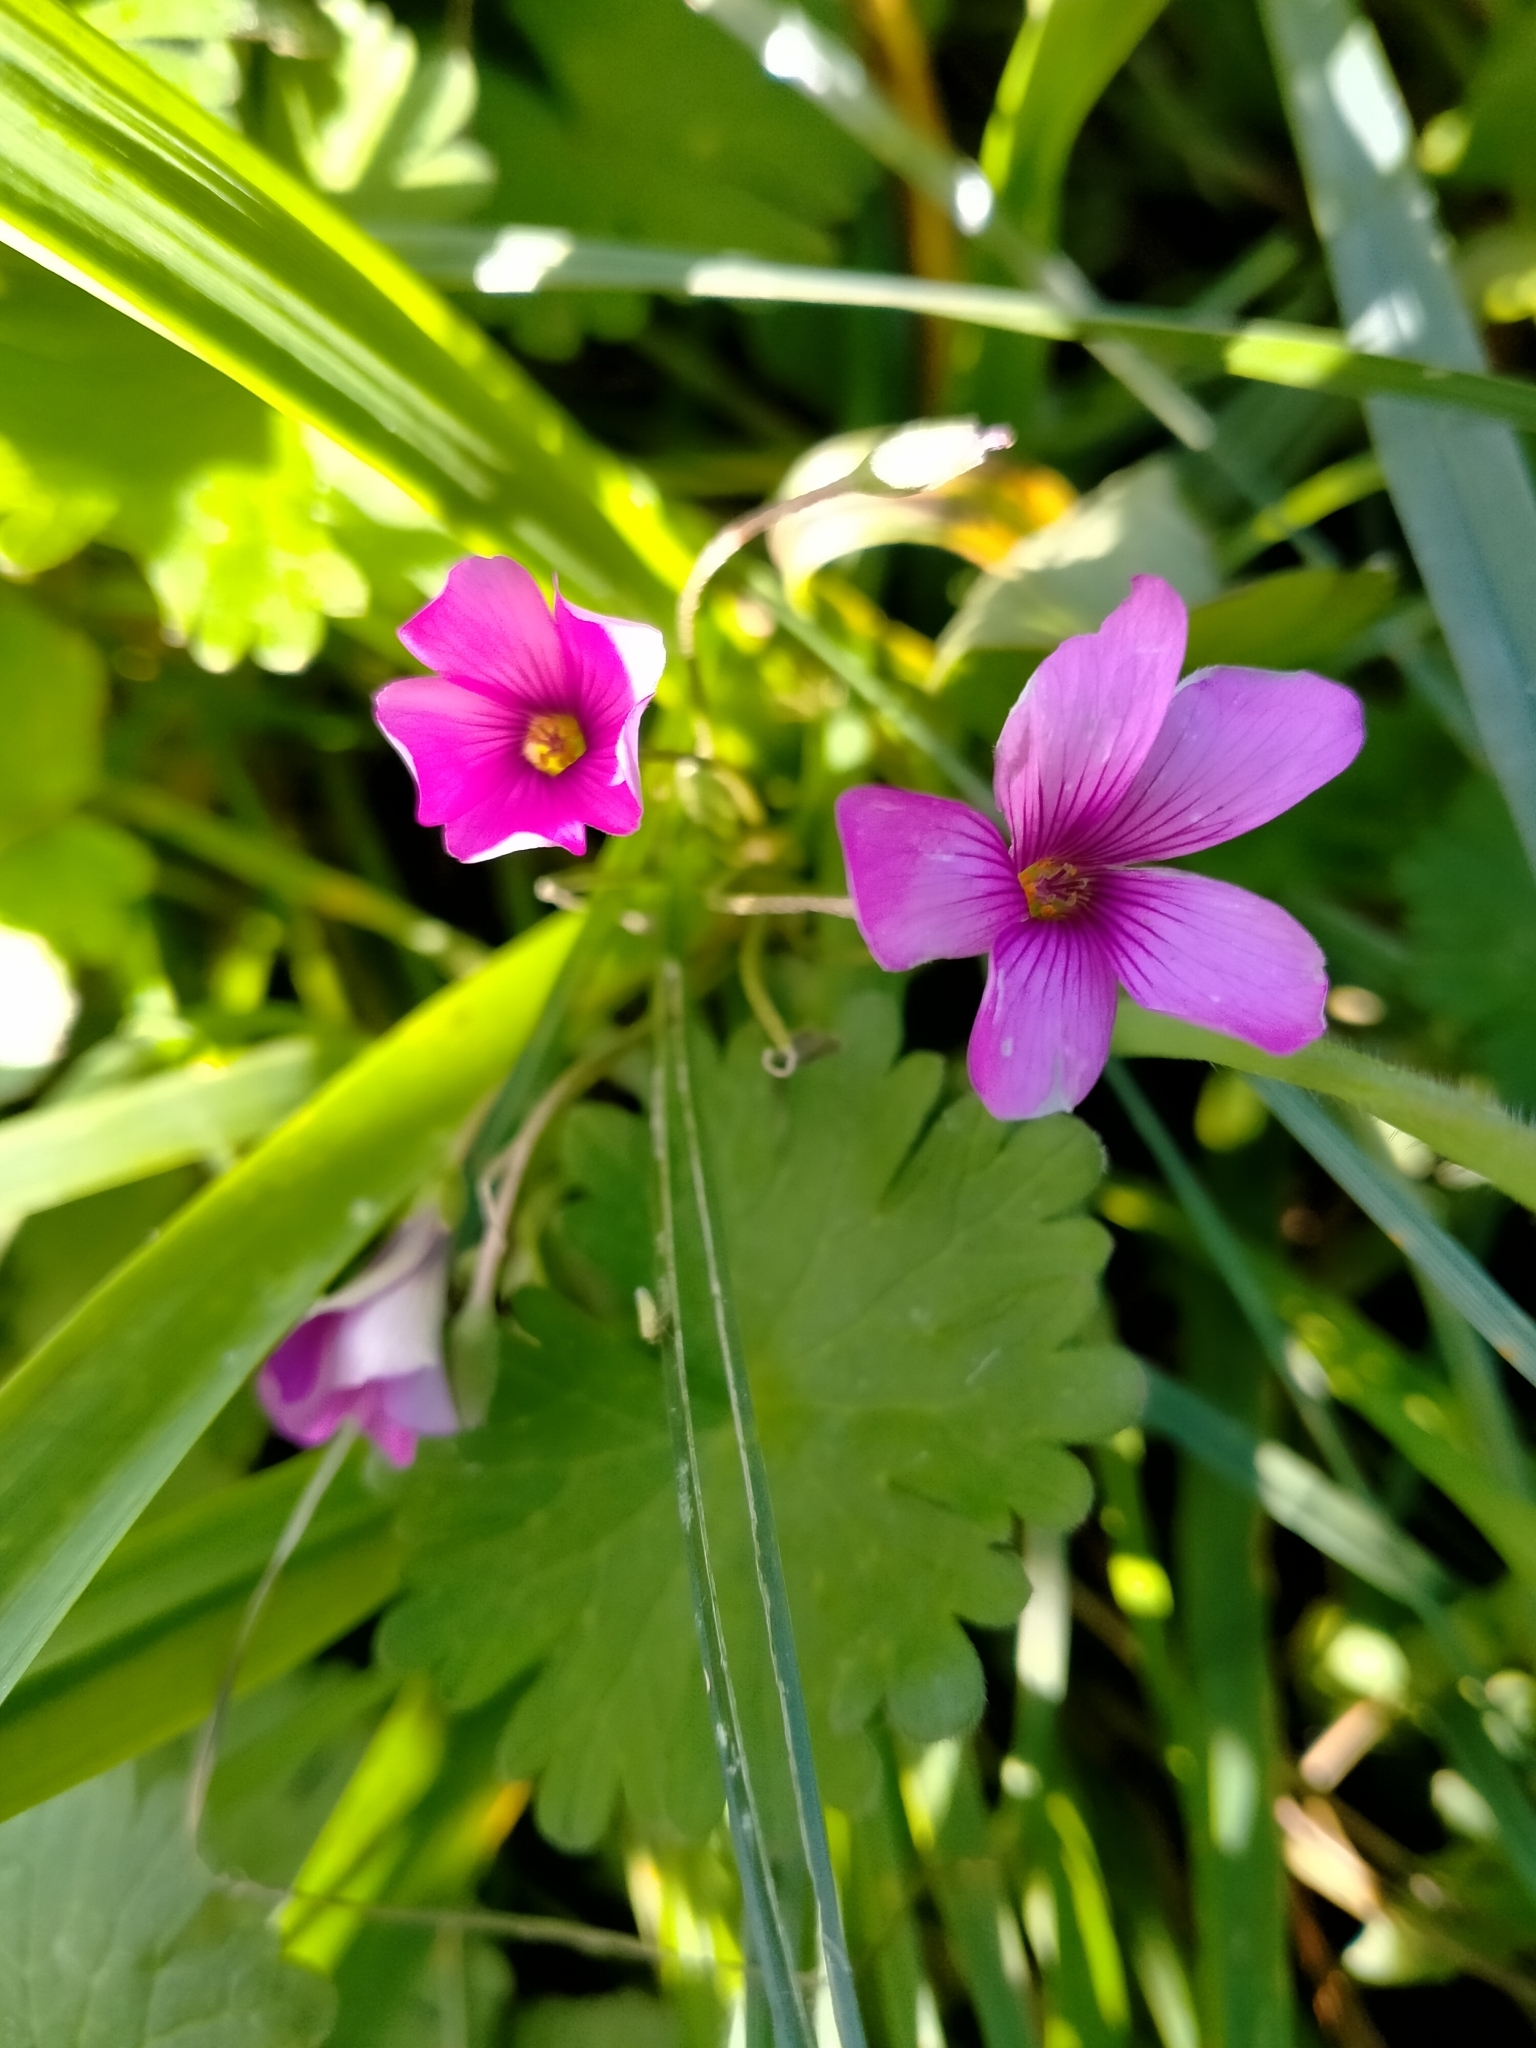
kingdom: Plantae
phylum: Tracheophyta
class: Magnoliopsida
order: Oxalidales
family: Oxalidaceae
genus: Oxalis
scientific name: Oxalis articulata
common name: Pink-sorrel
